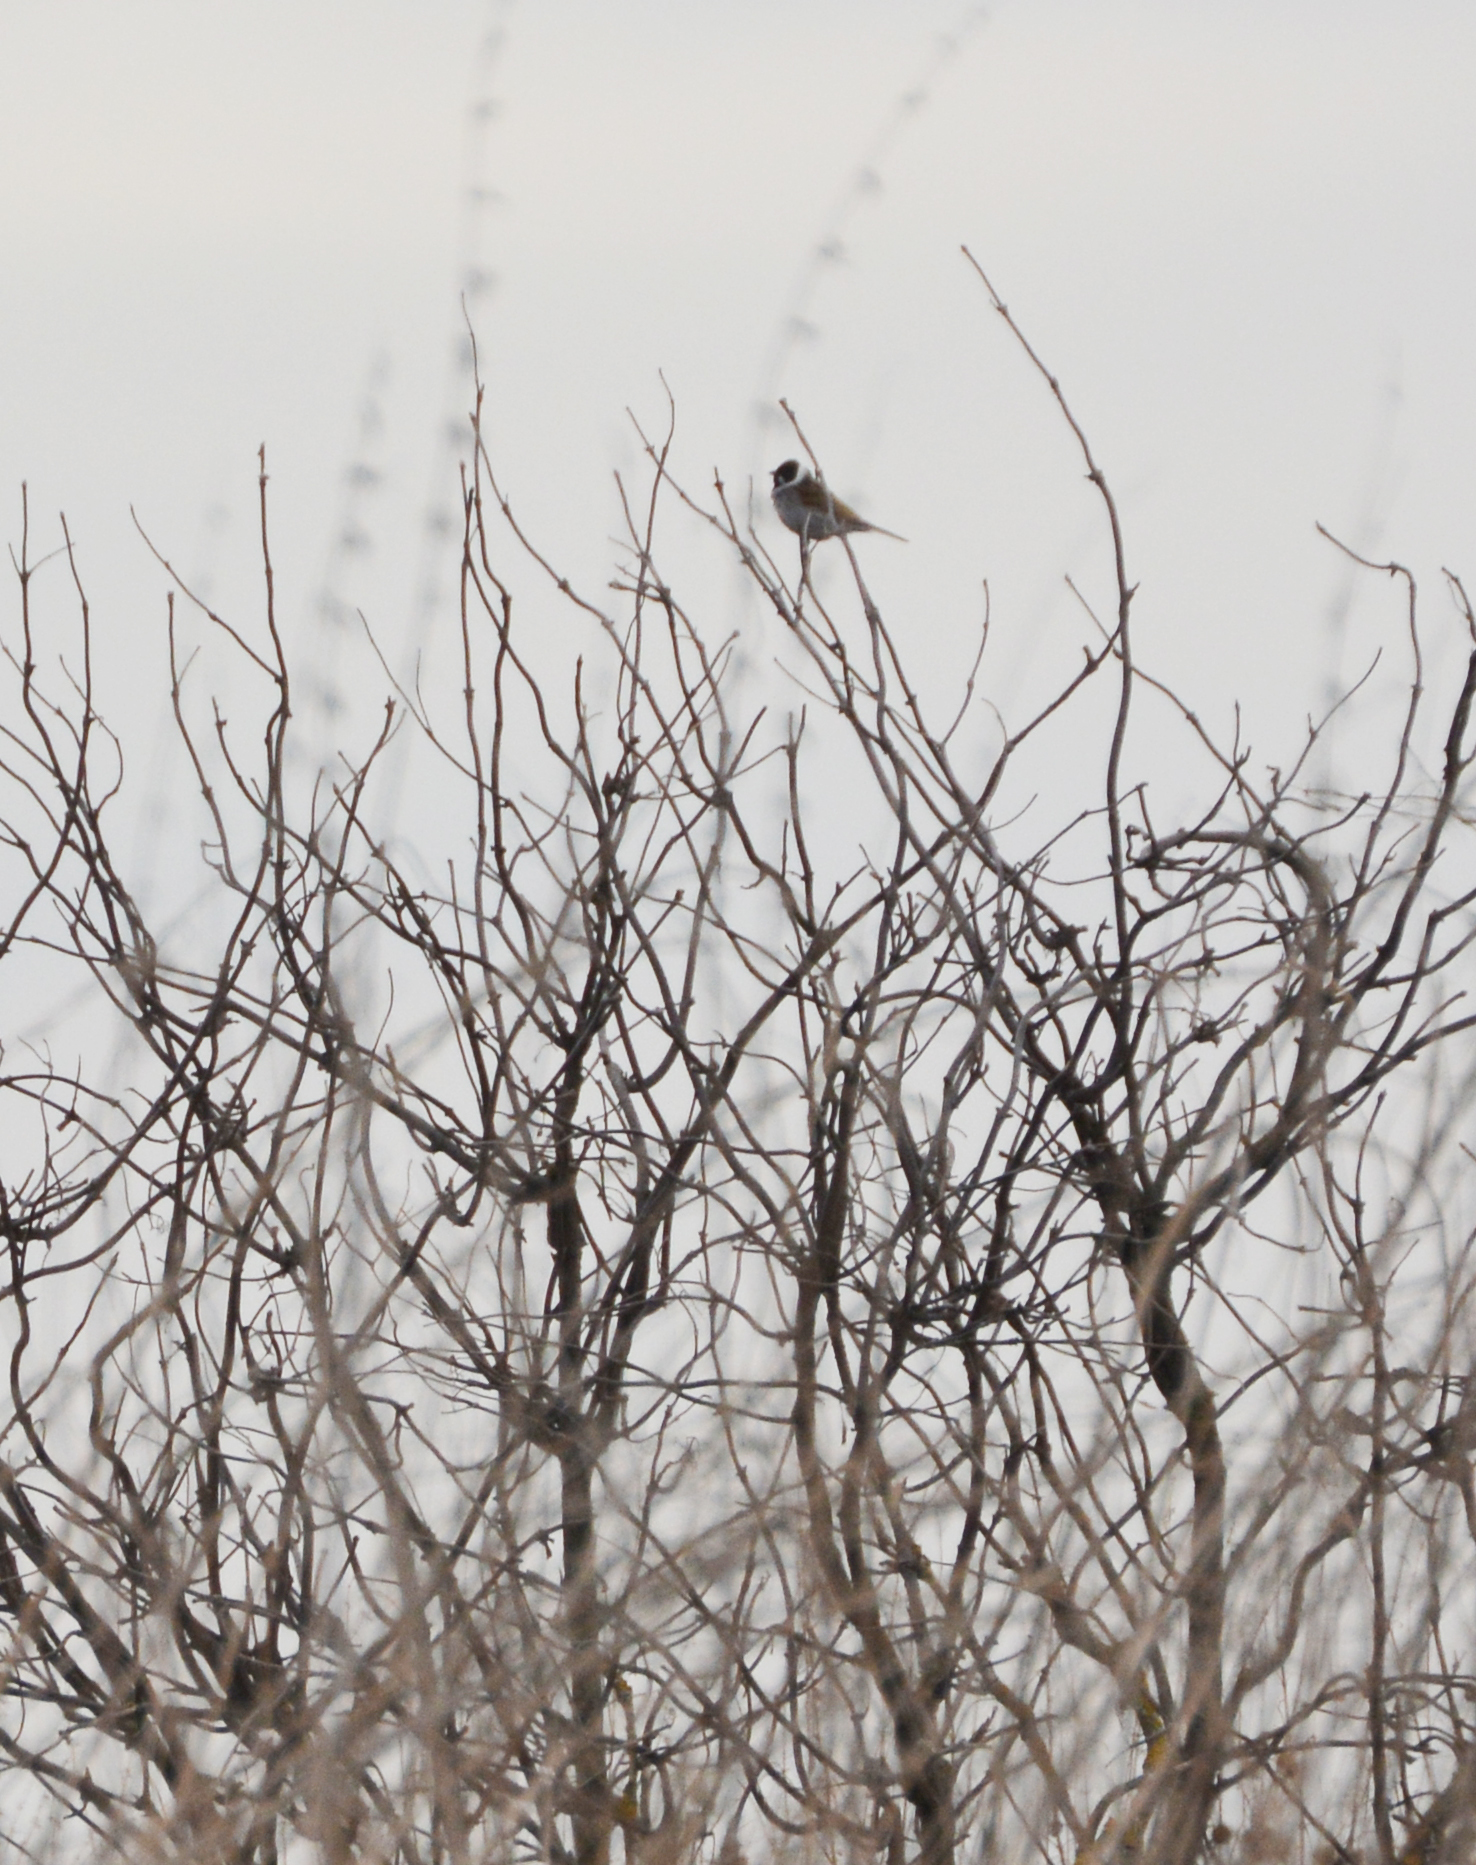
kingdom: Animalia
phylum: Chordata
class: Aves
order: Passeriformes
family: Emberizidae
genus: Emberiza
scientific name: Emberiza schoeniclus
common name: Reed bunting
